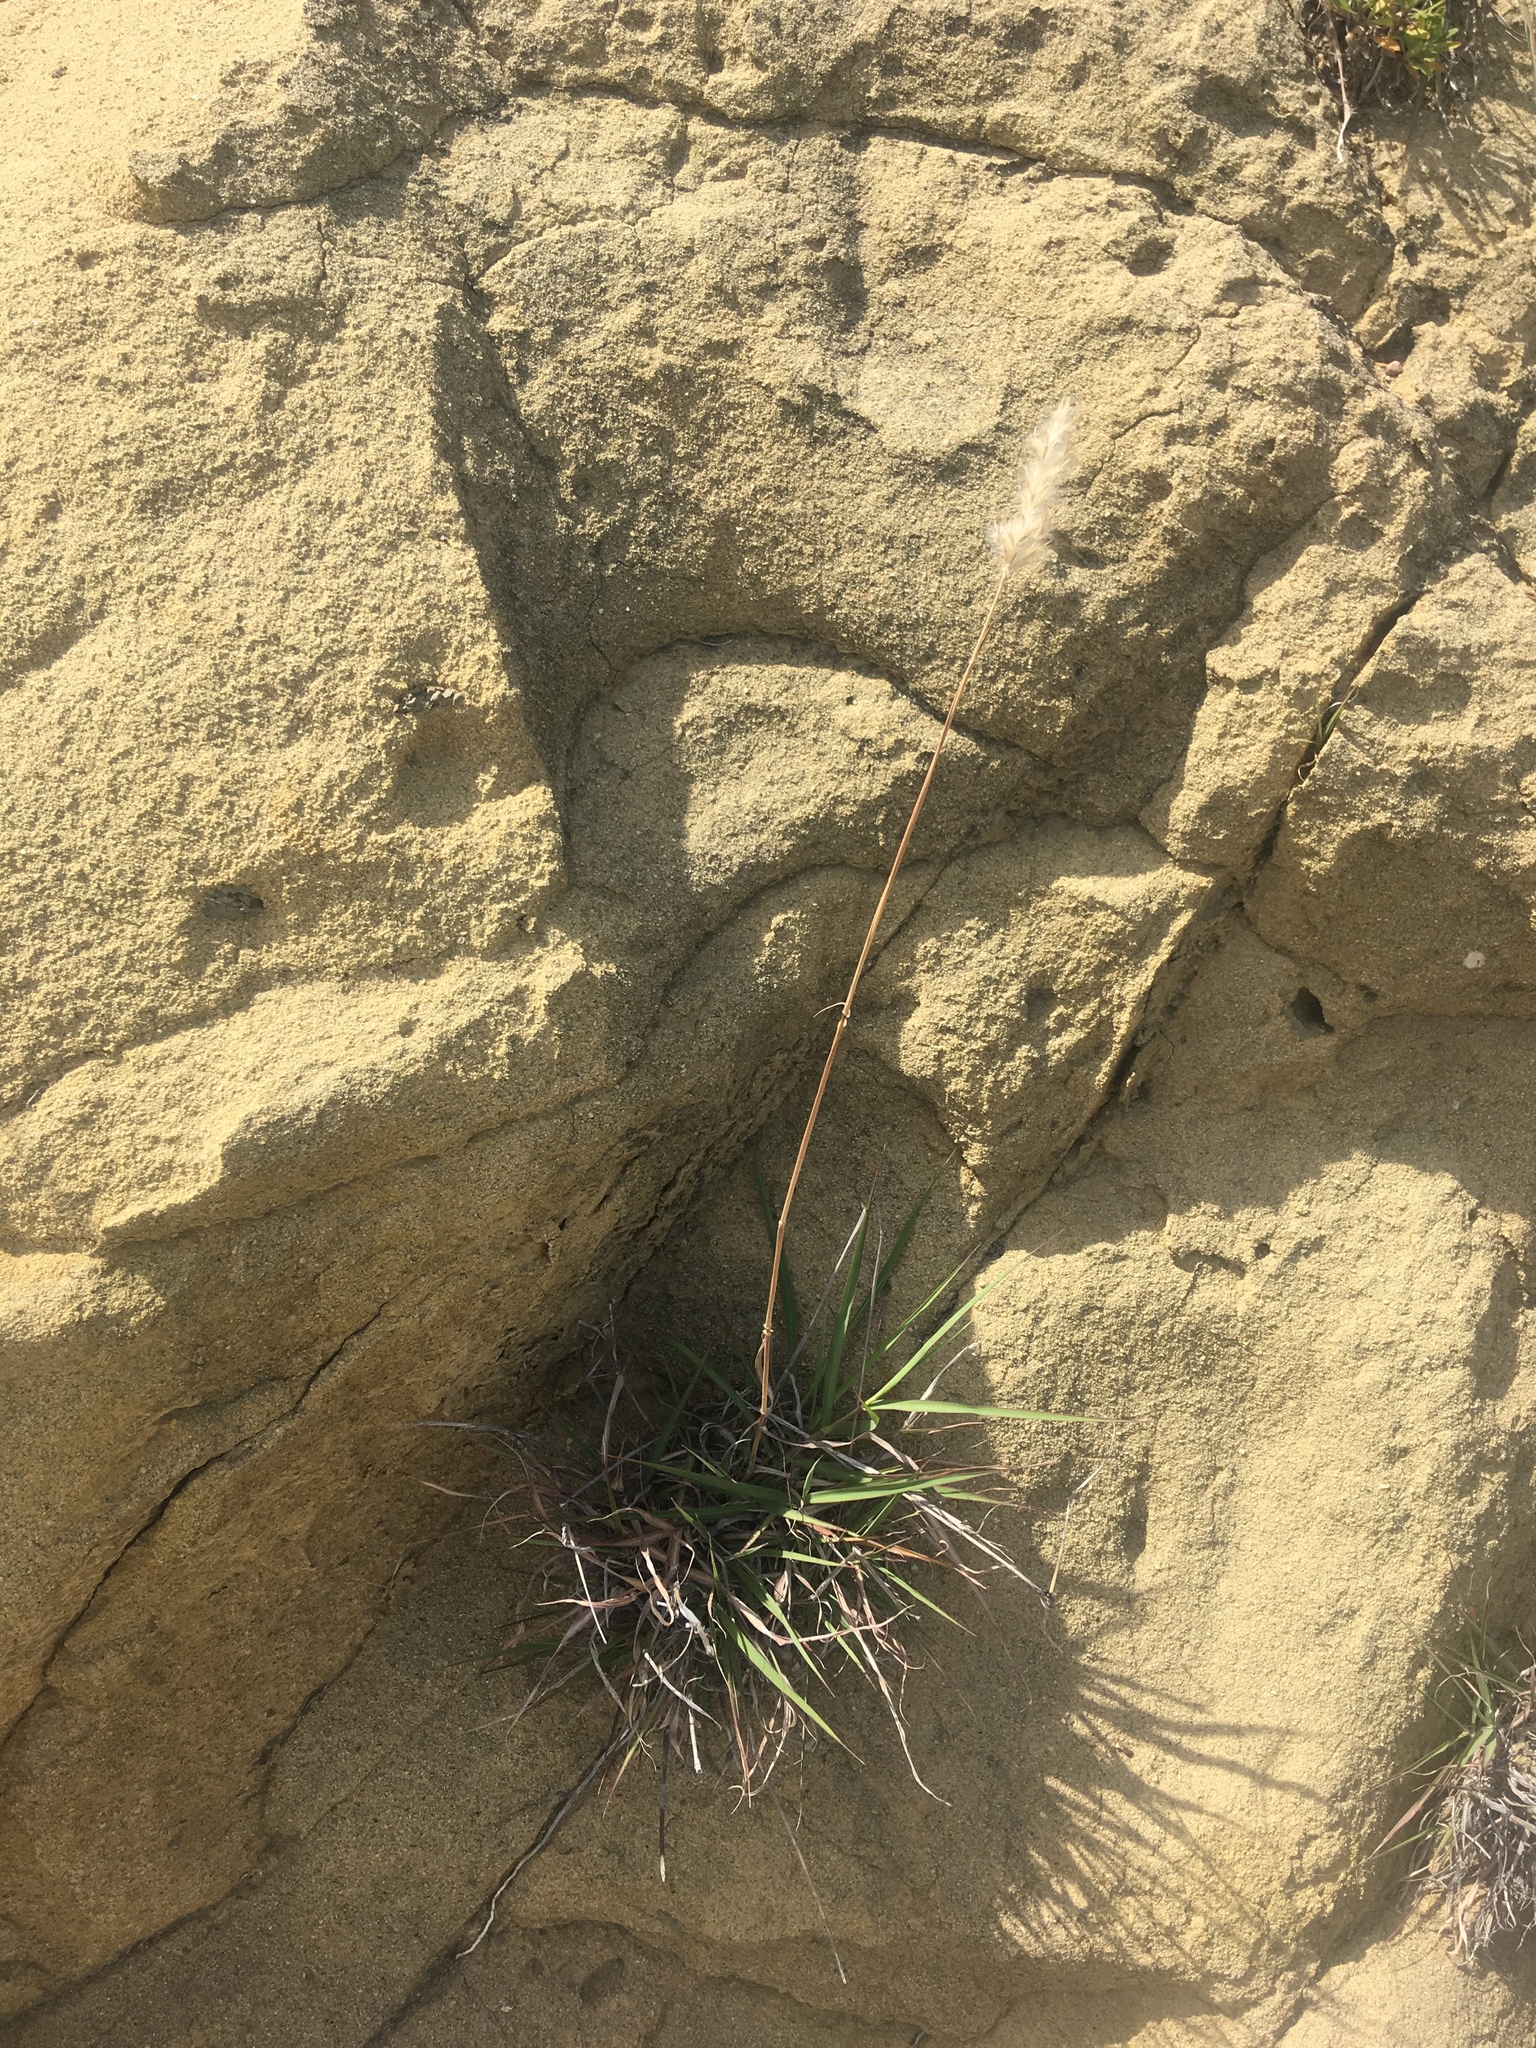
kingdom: Plantae
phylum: Tracheophyta
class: Liliopsida
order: Poales
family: Poaceae
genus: Bothriochloa
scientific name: Bothriochloa barbinodis
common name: Cane bluestem
